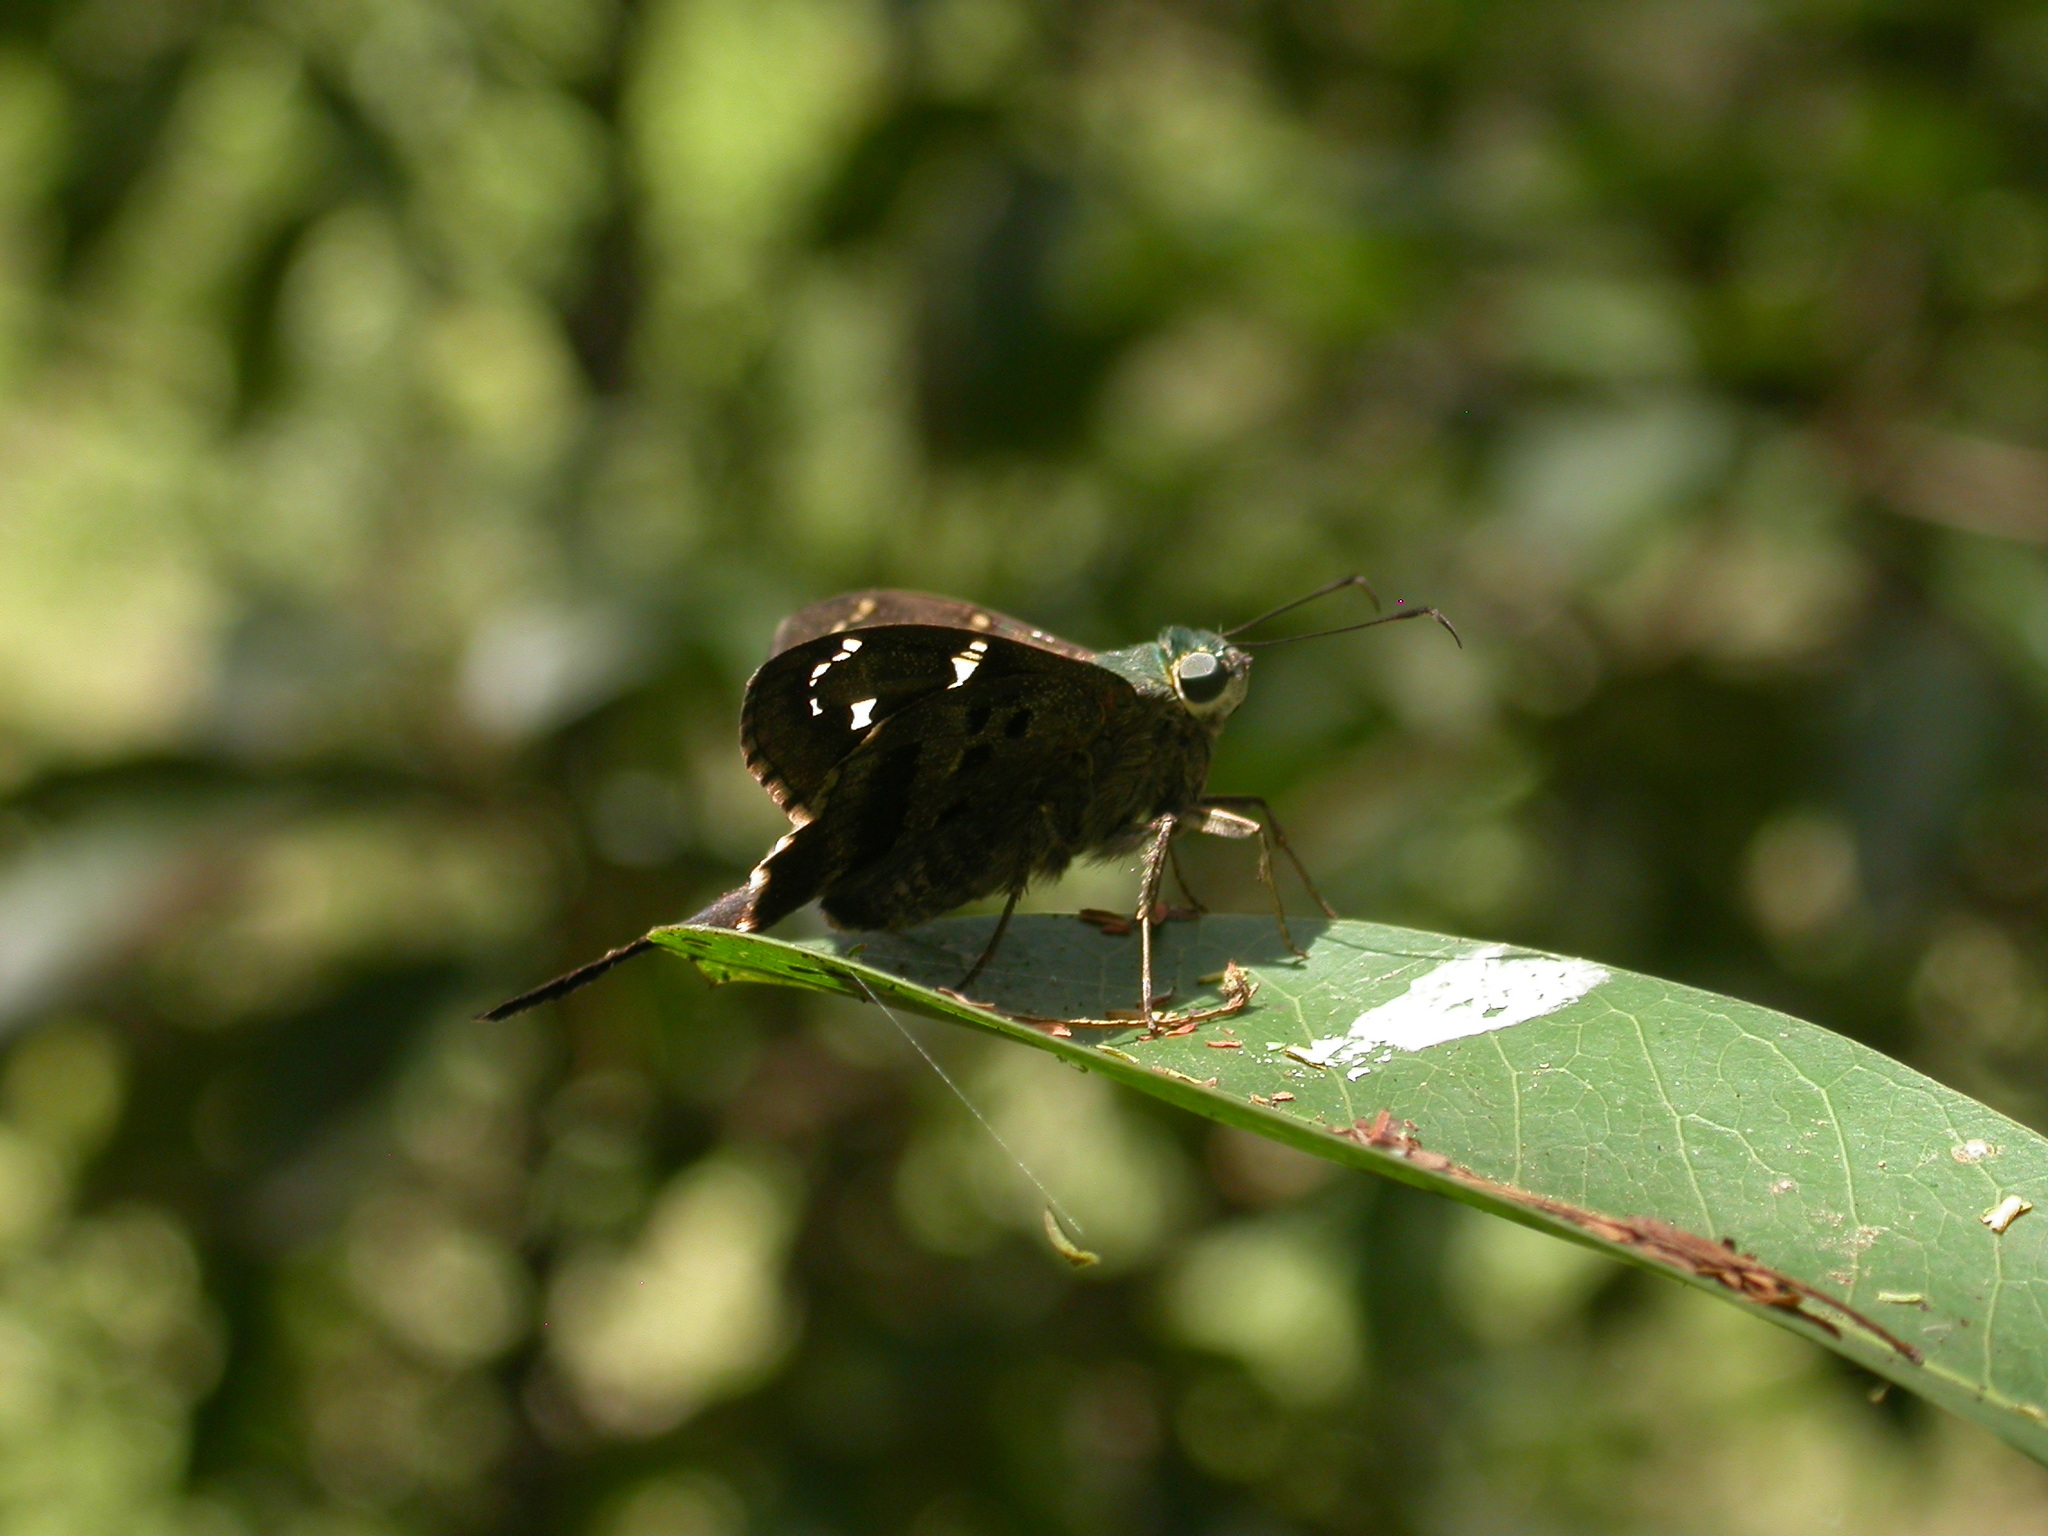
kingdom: Animalia
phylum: Arthropoda
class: Insecta
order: Lepidoptera
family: Hesperiidae
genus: Urbanus
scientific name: Urbanus proteus
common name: Long-tailed skipper
